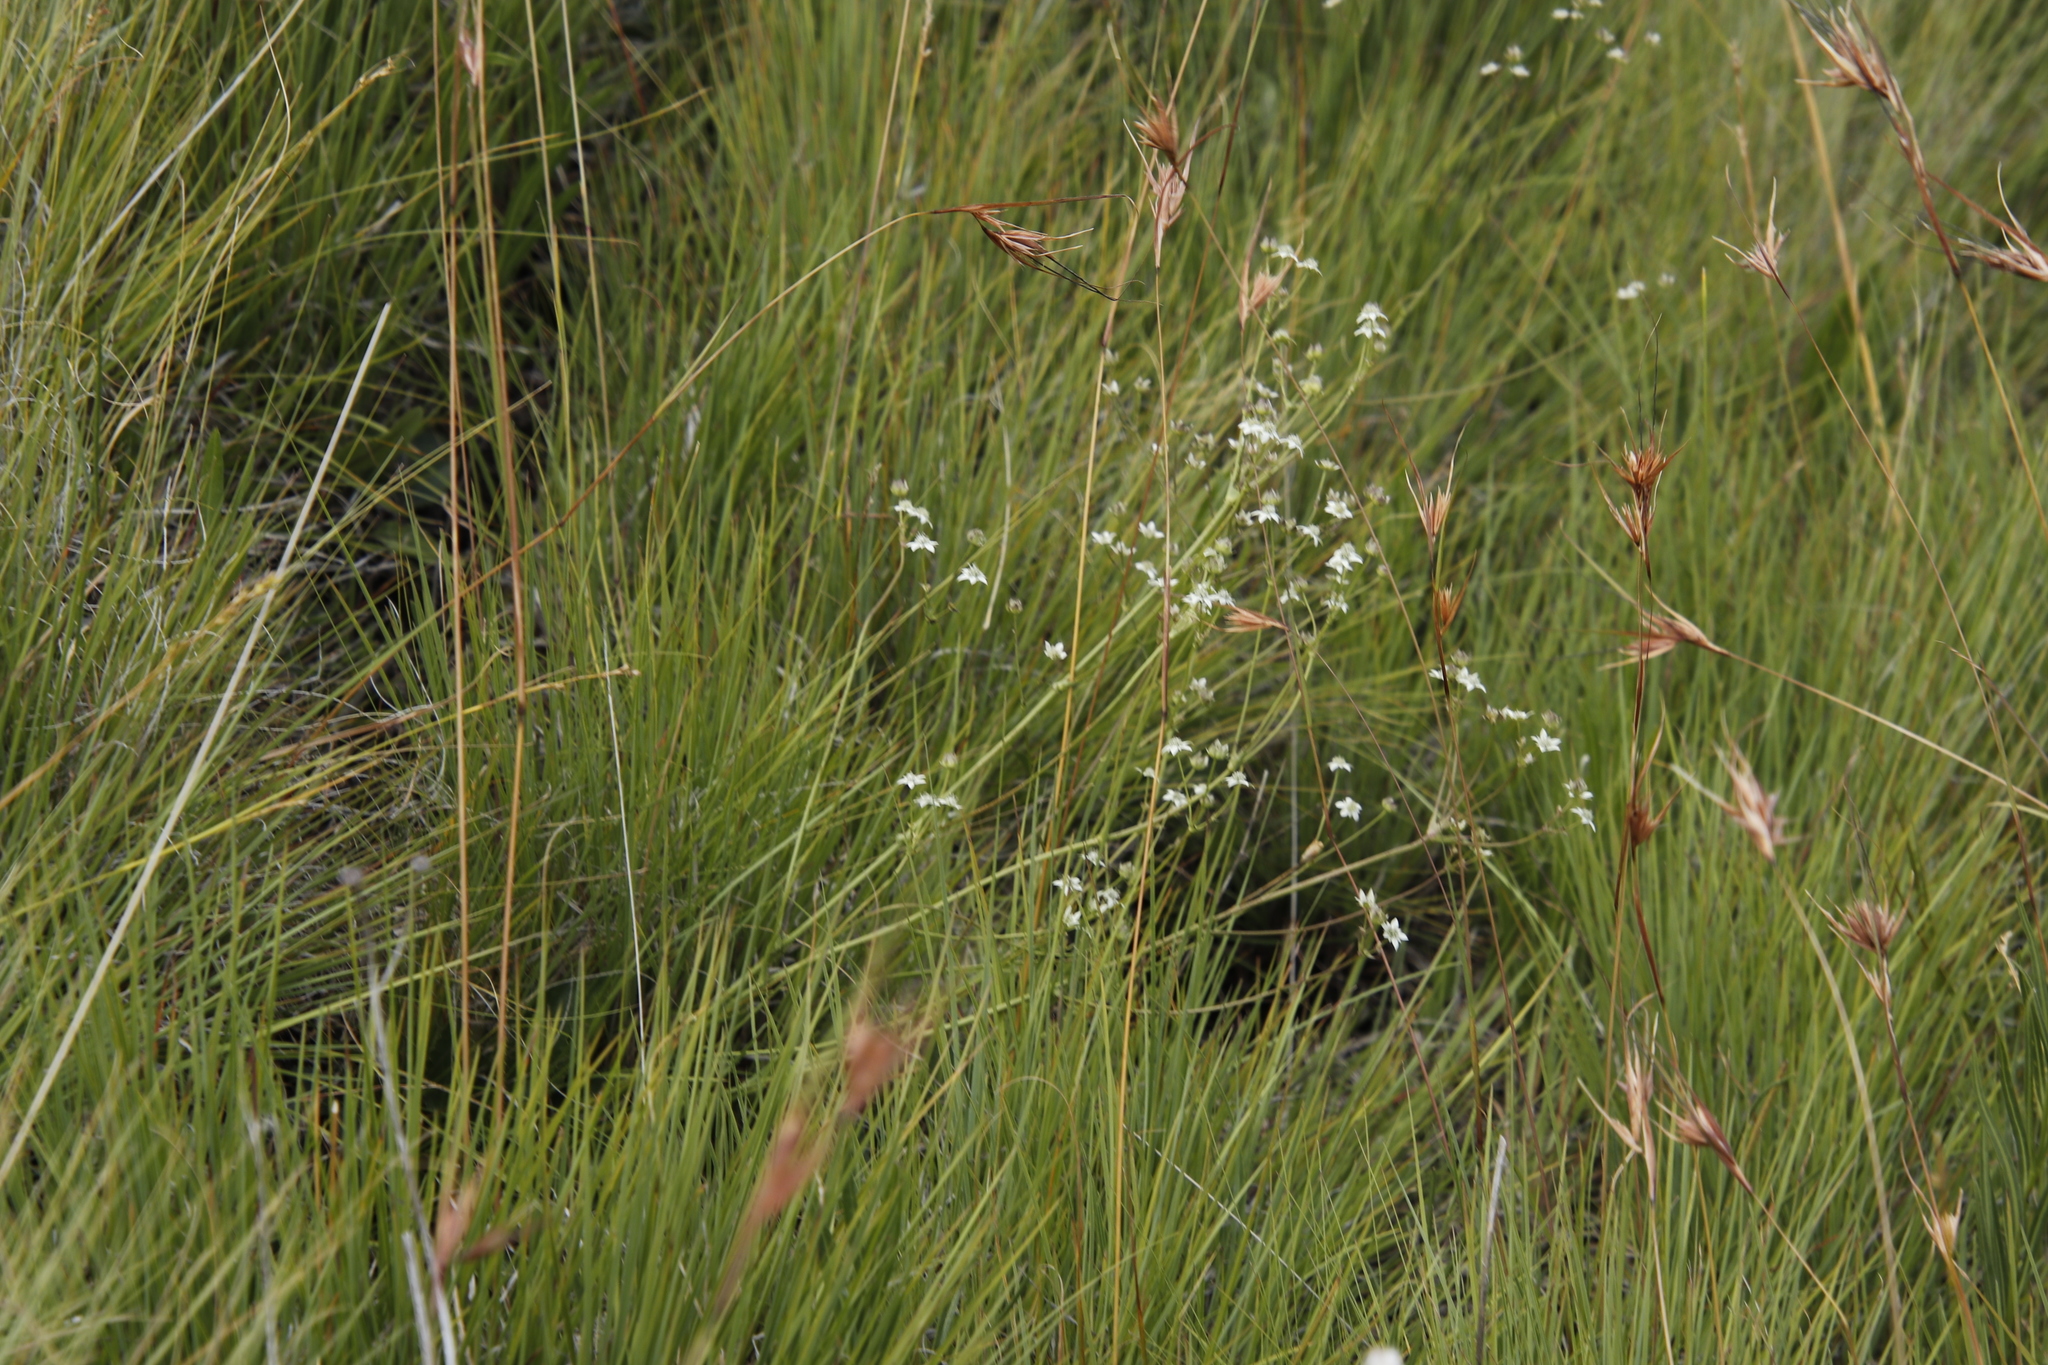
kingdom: Plantae
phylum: Tracheophyta
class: Liliopsida
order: Poales
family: Poaceae
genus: Themeda
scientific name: Themeda triandra
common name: Kangaroo grass
